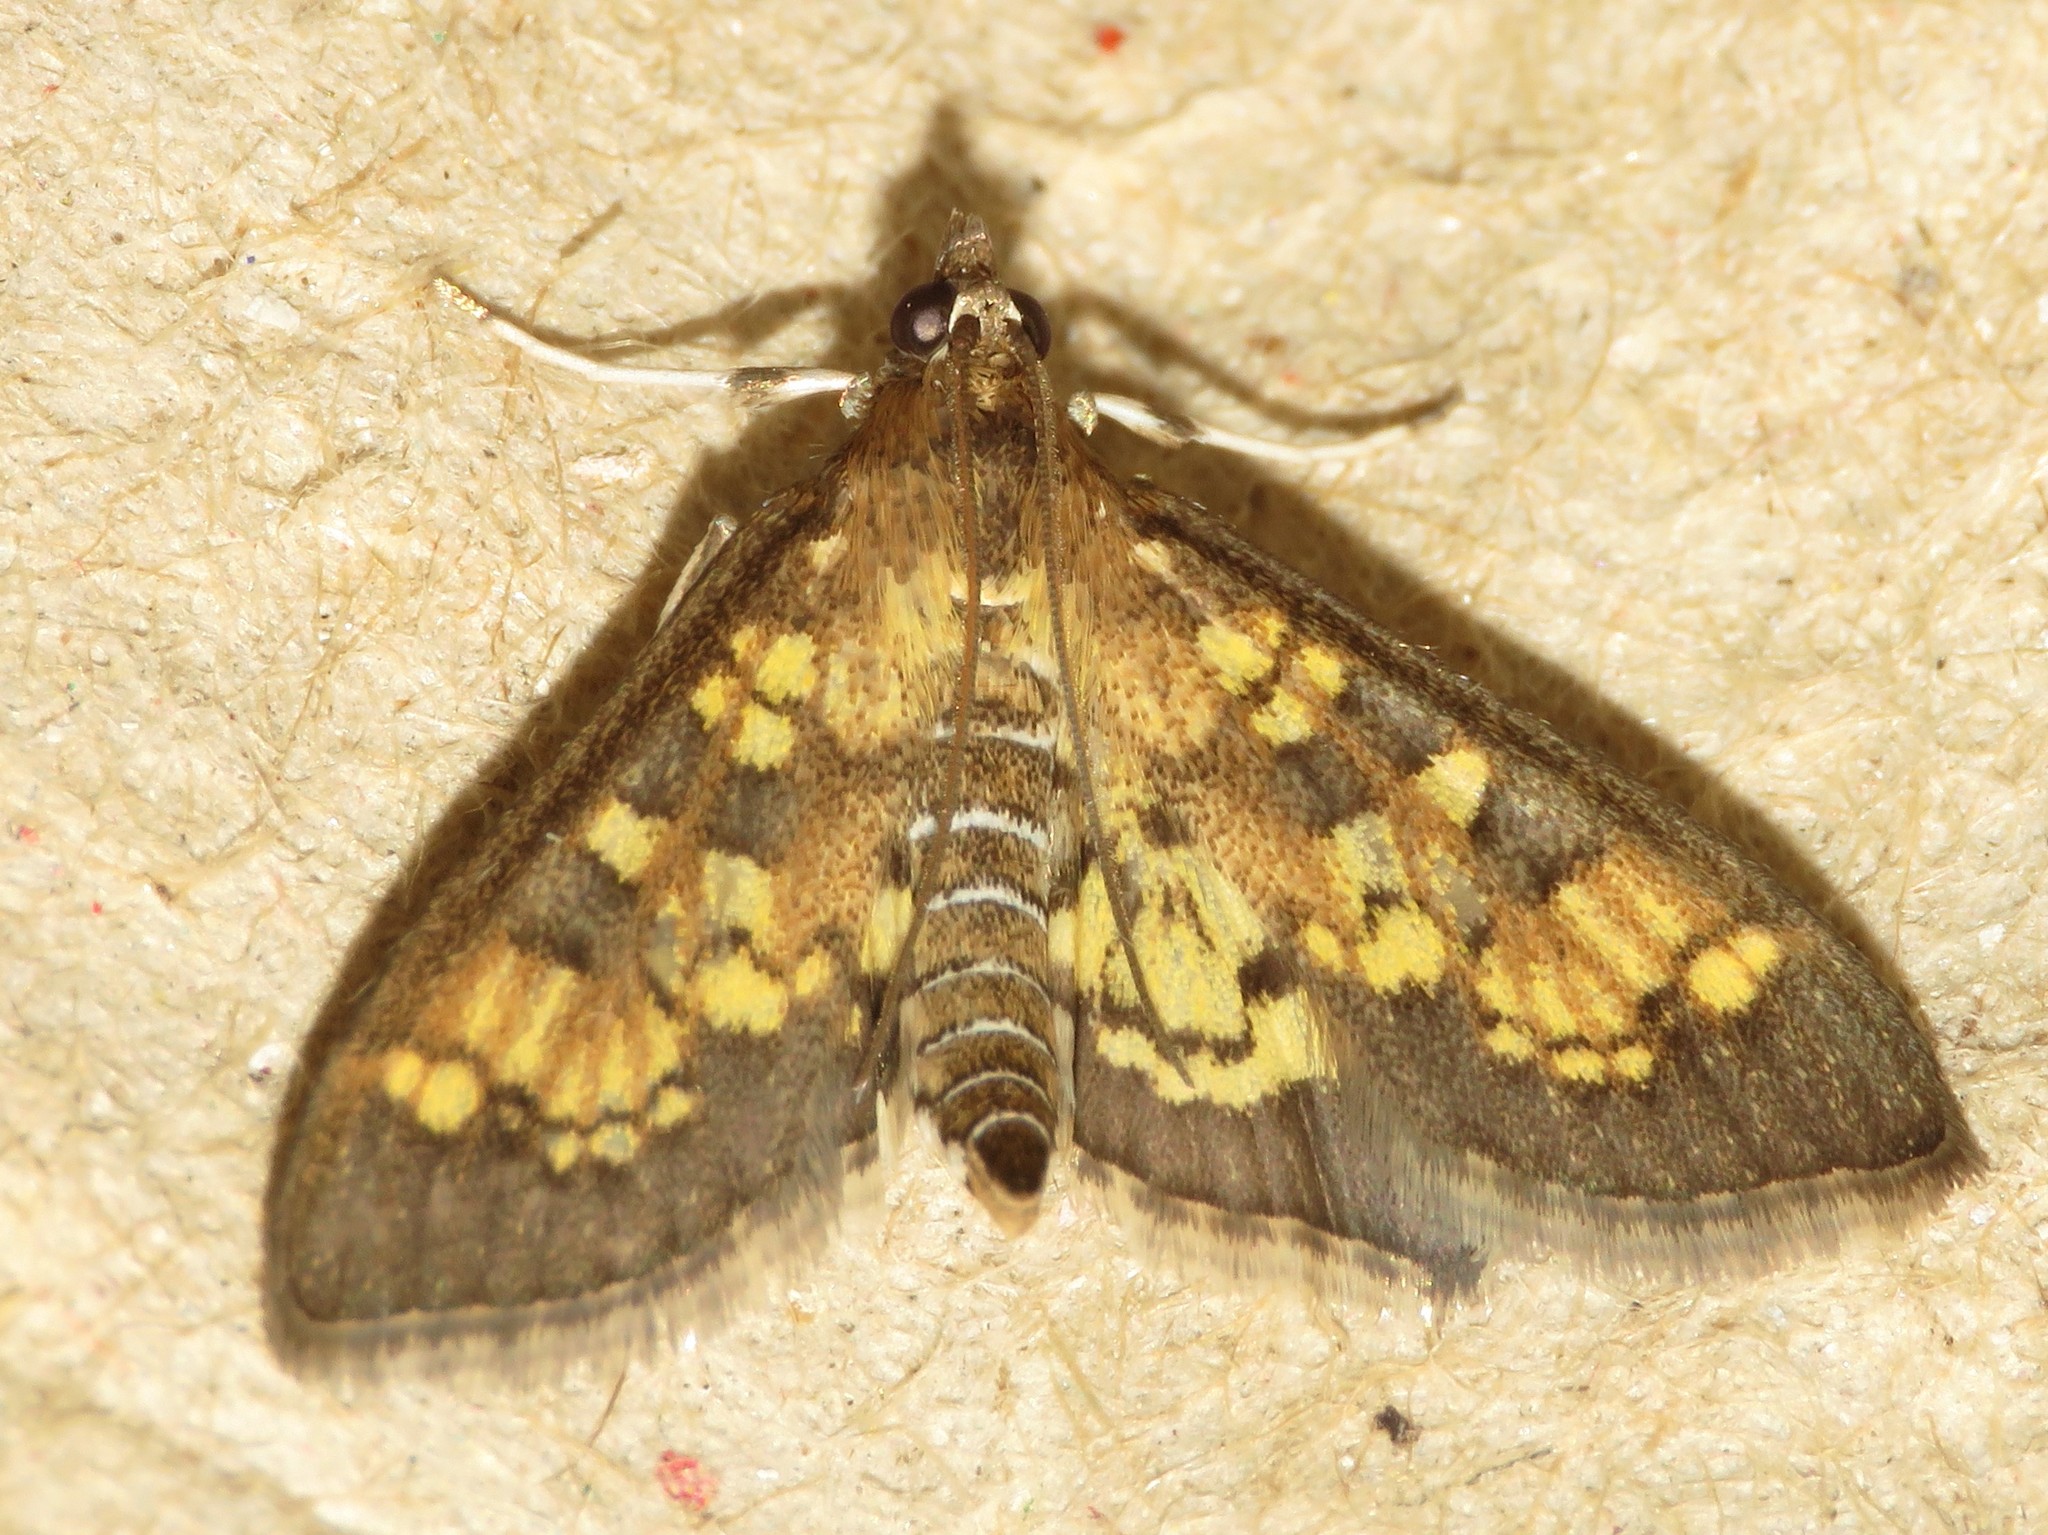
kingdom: Animalia
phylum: Arthropoda
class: Insecta
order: Lepidoptera
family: Crambidae
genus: Epipagis
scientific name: Epipagis adipaloides
